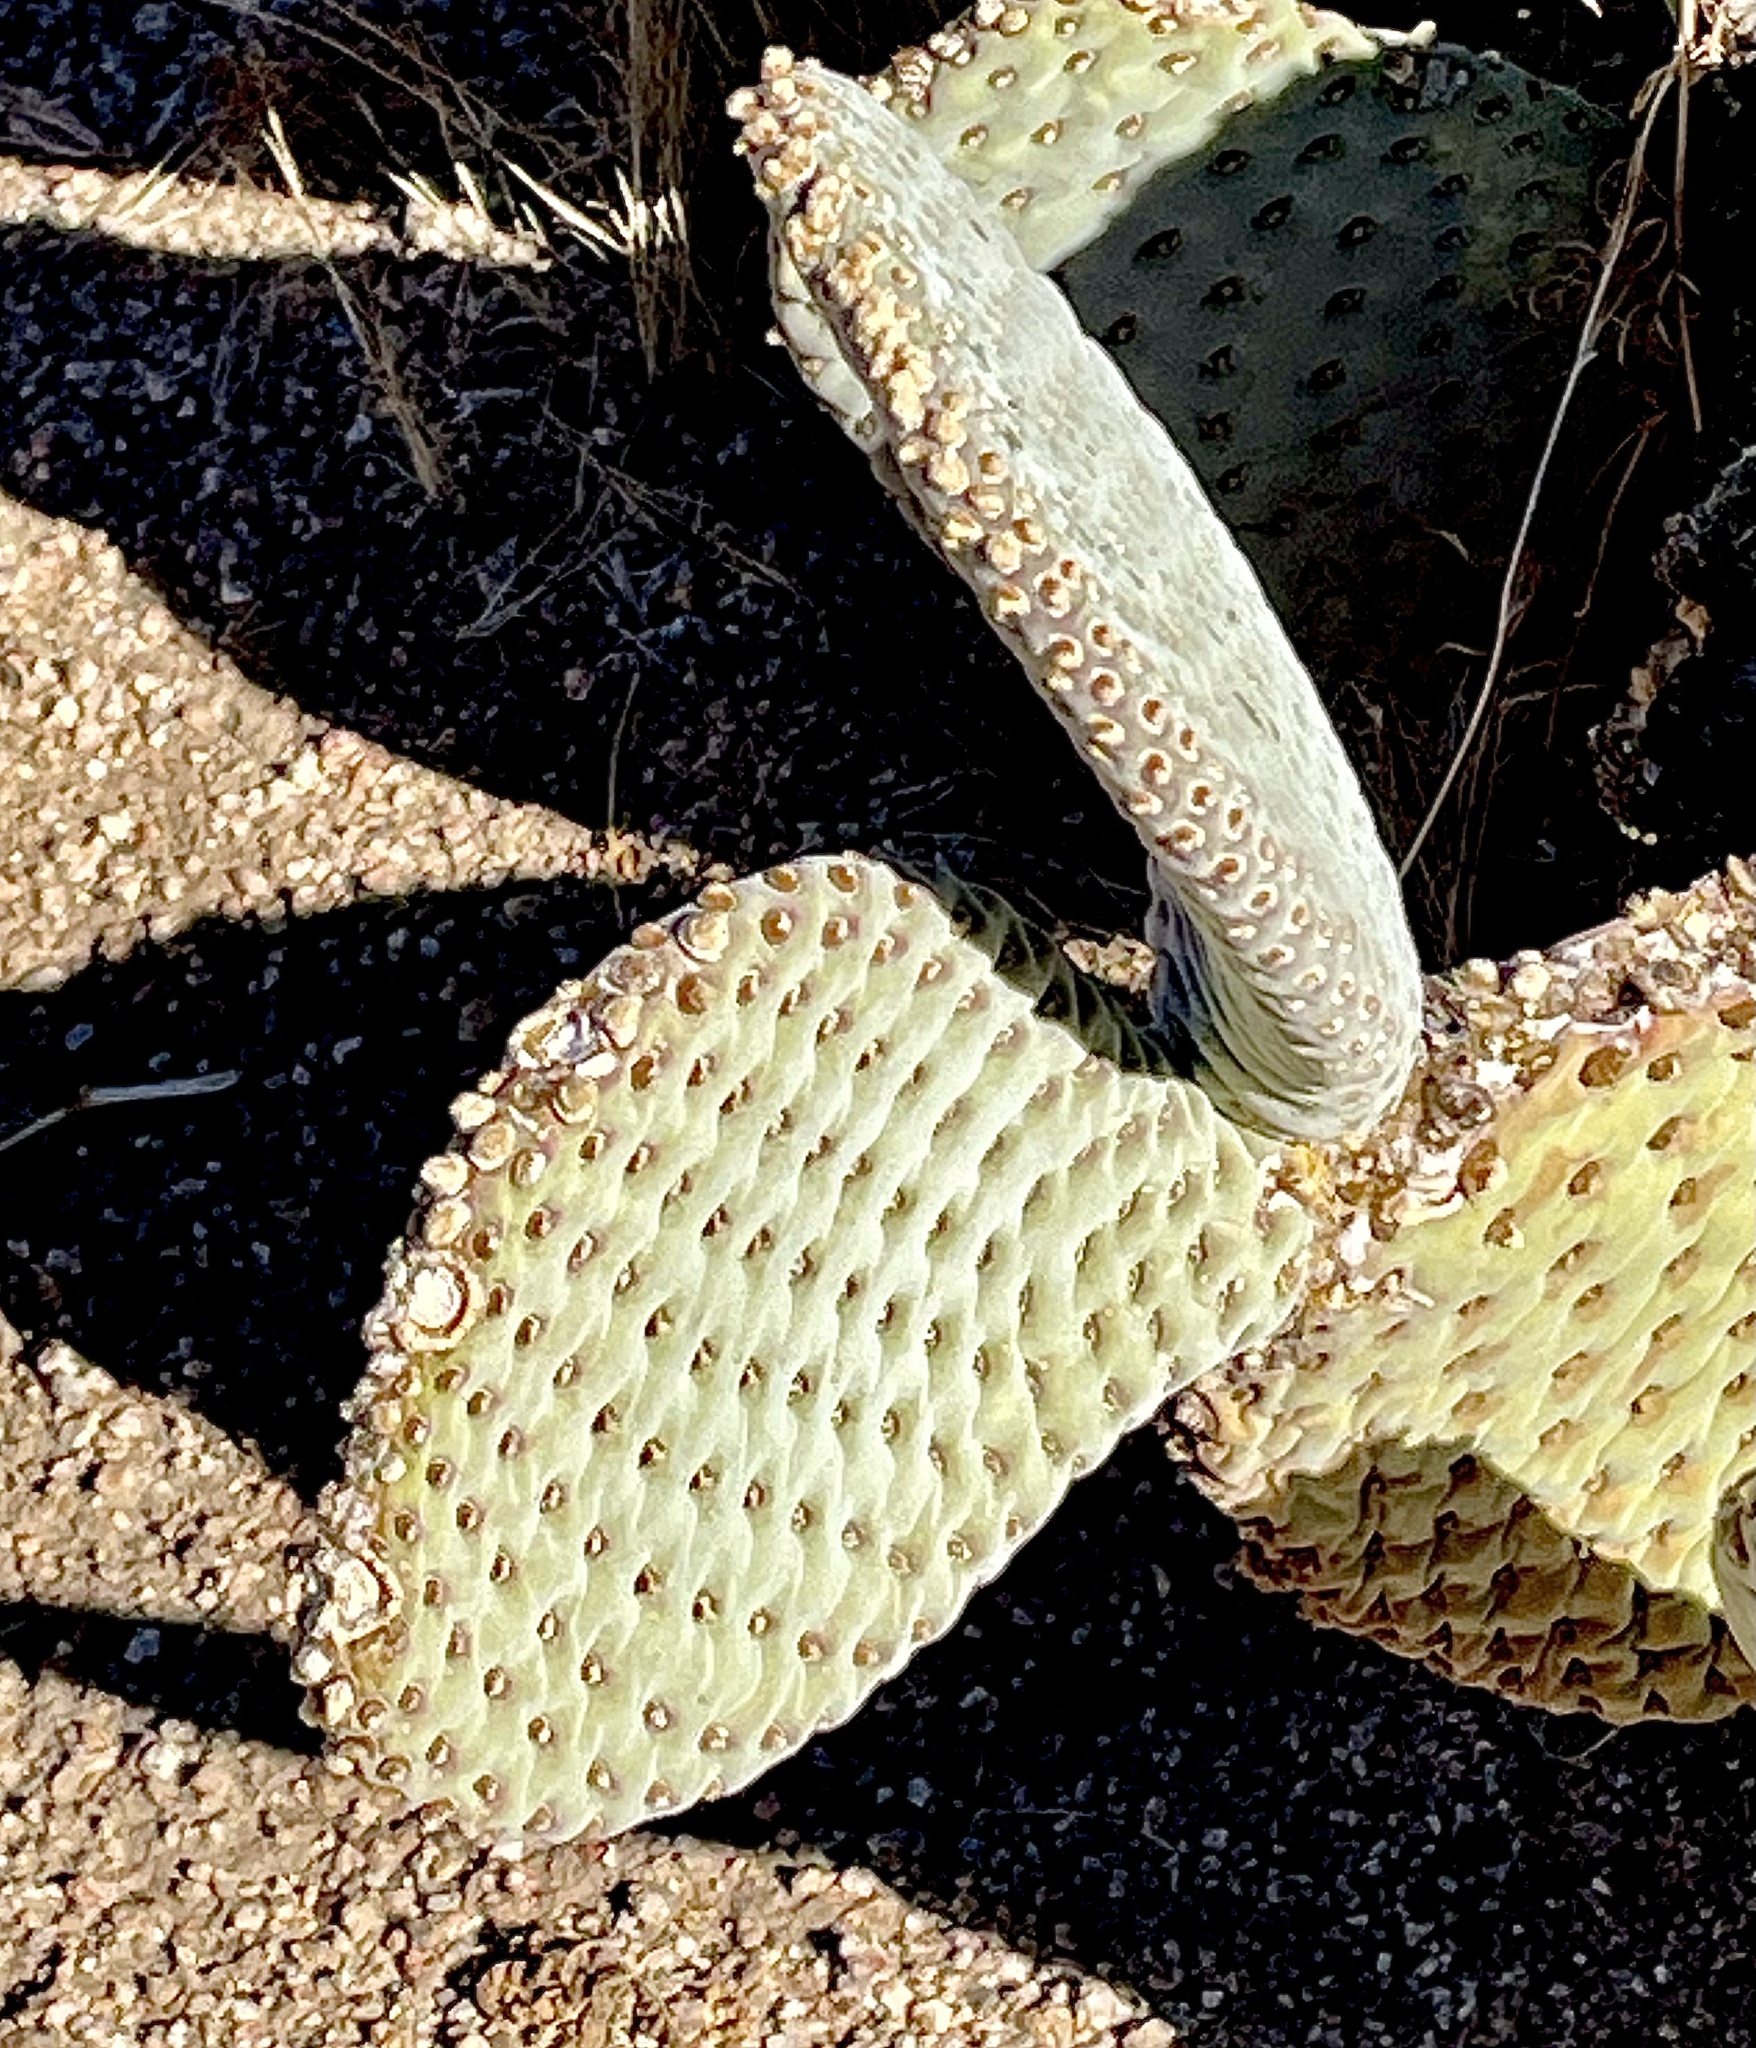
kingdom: Plantae
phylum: Tracheophyta
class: Magnoliopsida
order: Caryophyllales
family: Cactaceae
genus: Opuntia
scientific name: Opuntia basilaris
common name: Beavertail prickly-pear
